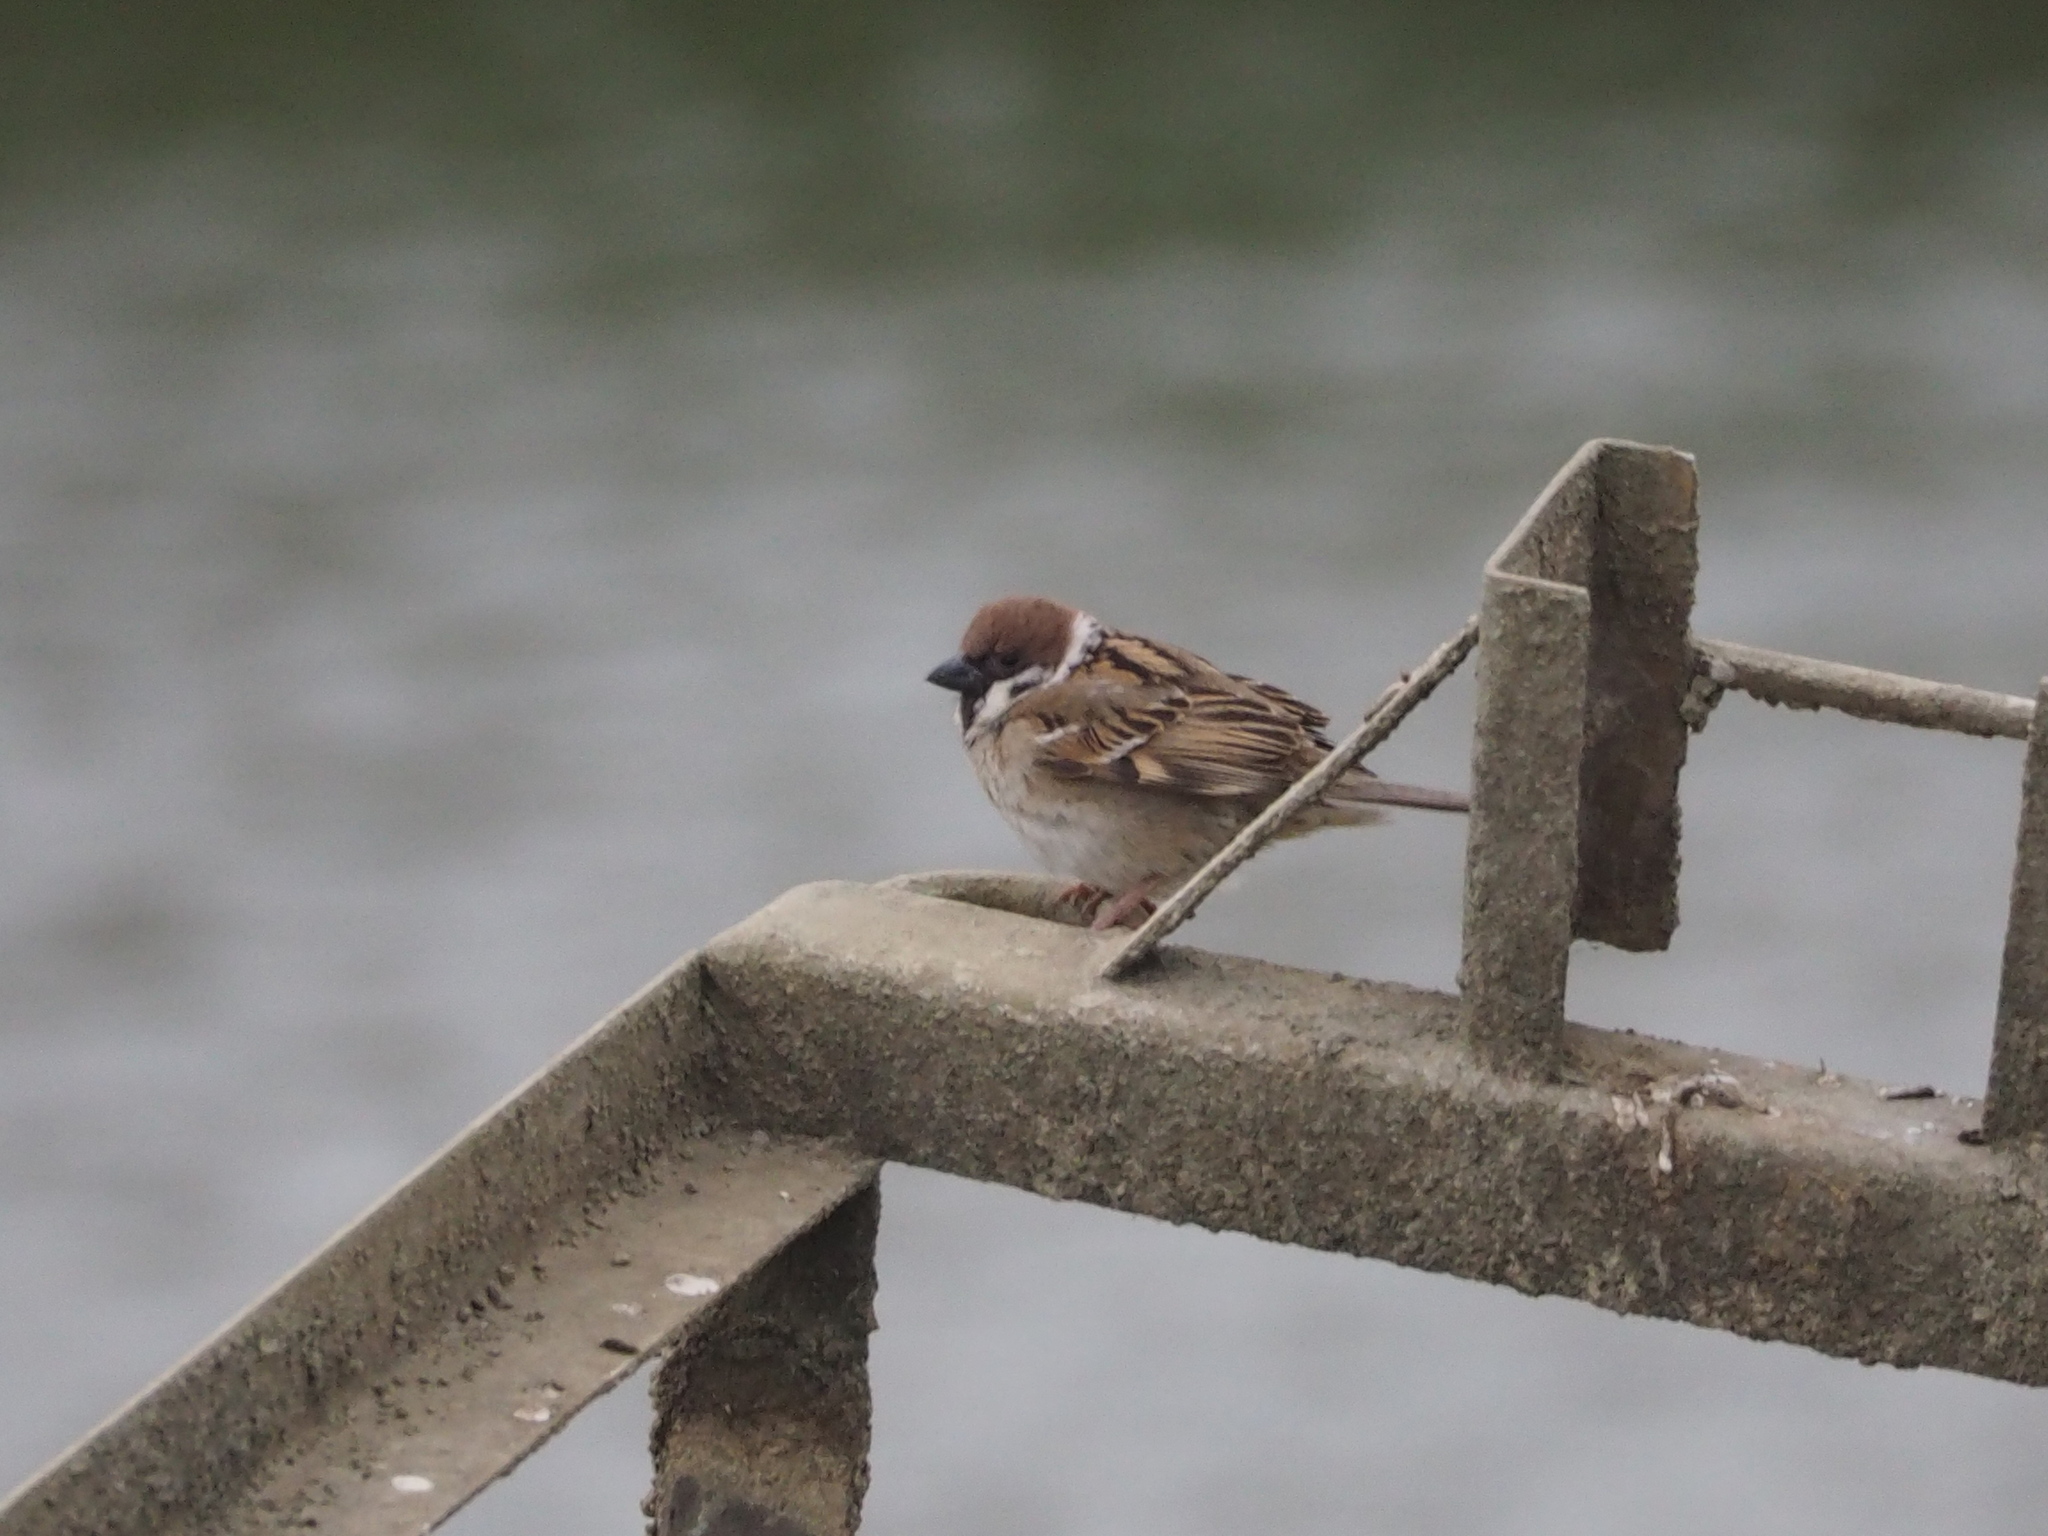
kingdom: Animalia
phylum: Chordata
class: Aves
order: Passeriformes
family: Passeridae
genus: Passer
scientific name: Passer montanus
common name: Eurasian tree sparrow
